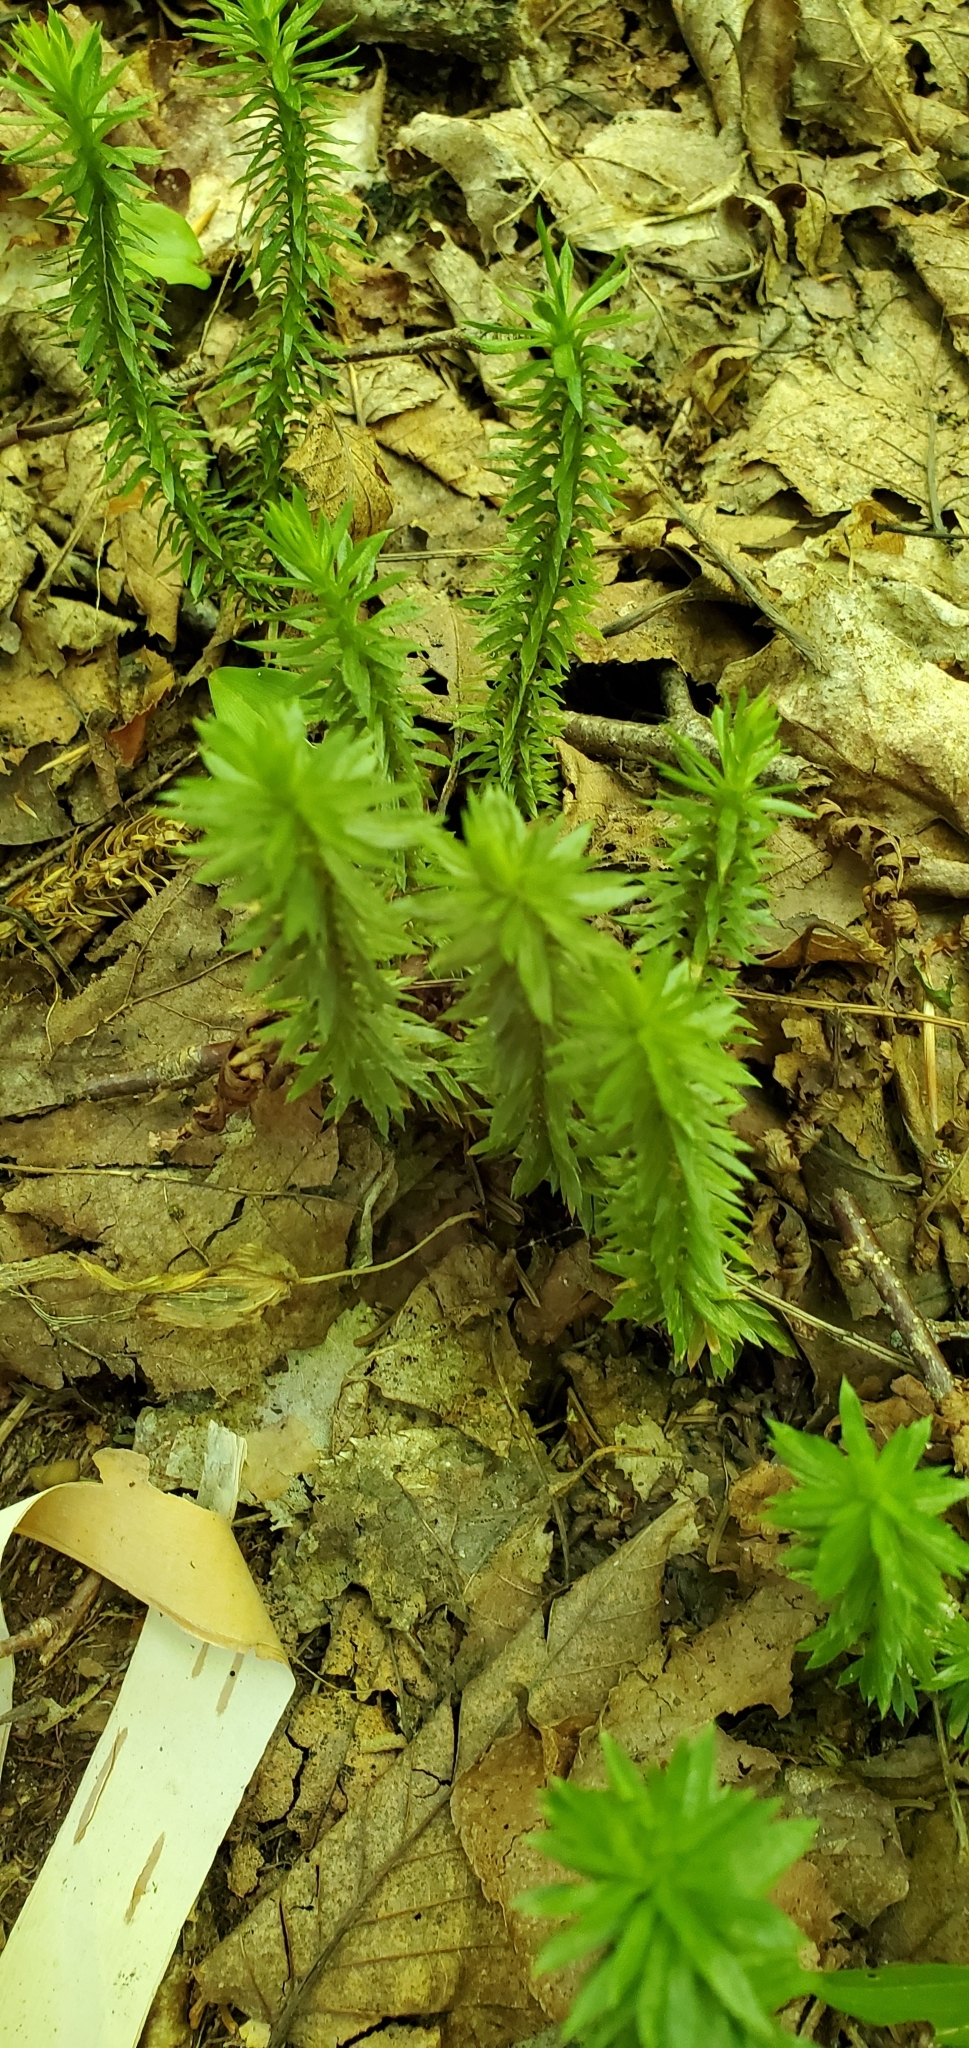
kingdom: Plantae
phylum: Tracheophyta
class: Lycopodiopsida
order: Lycopodiales
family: Lycopodiaceae
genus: Huperzia
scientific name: Huperzia lucidula
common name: Shining clubmoss
